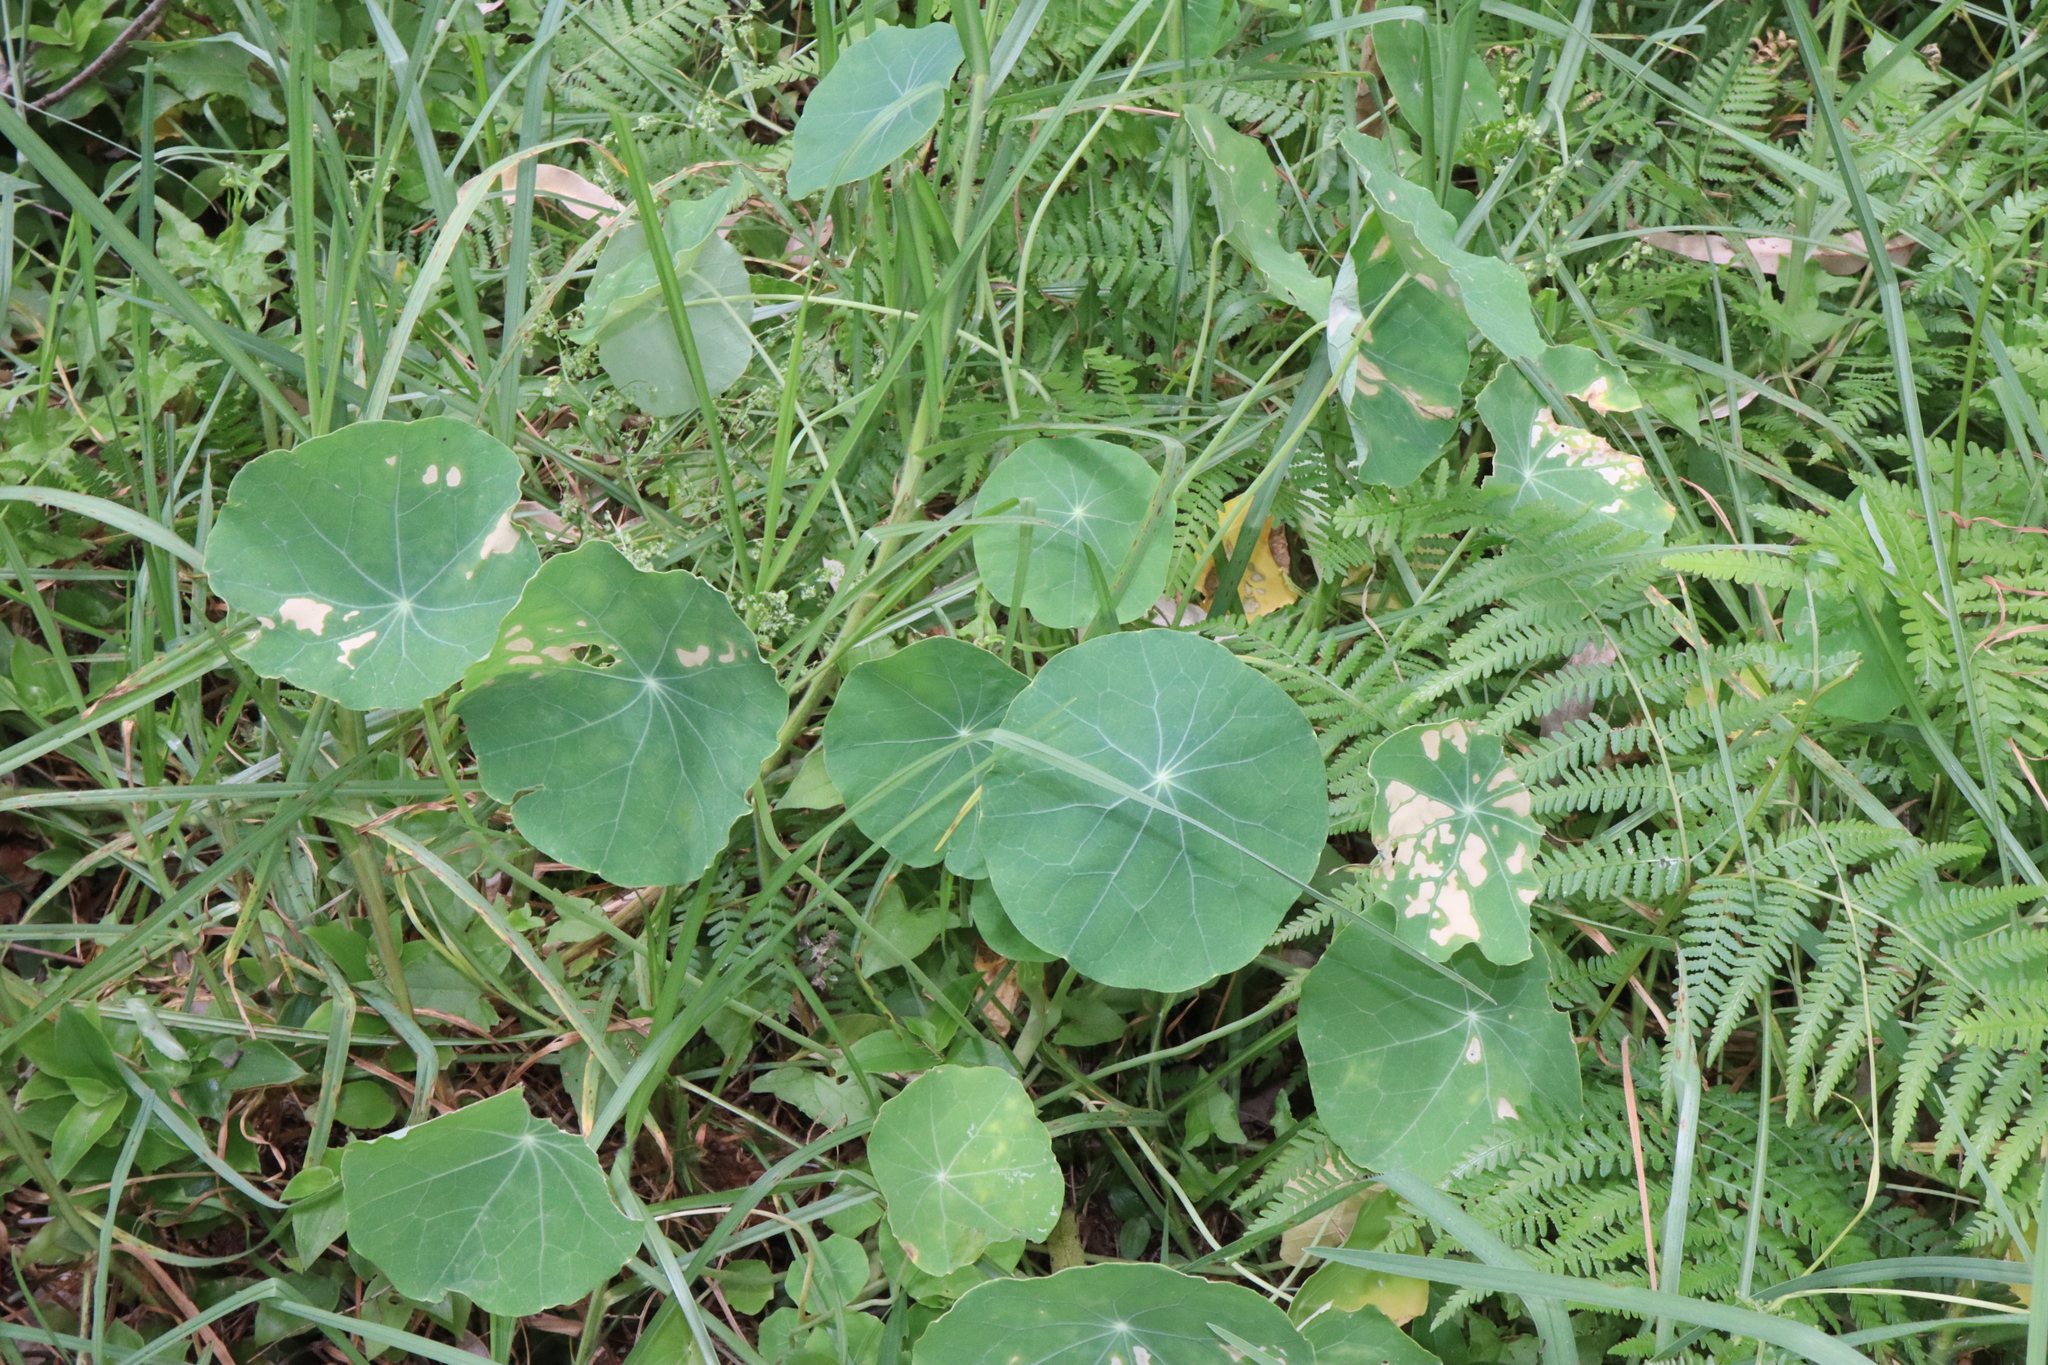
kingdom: Plantae
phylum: Tracheophyta
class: Magnoliopsida
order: Brassicales
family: Tropaeolaceae
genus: Tropaeolum
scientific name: Tropaeolum majus
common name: Nasturtium
